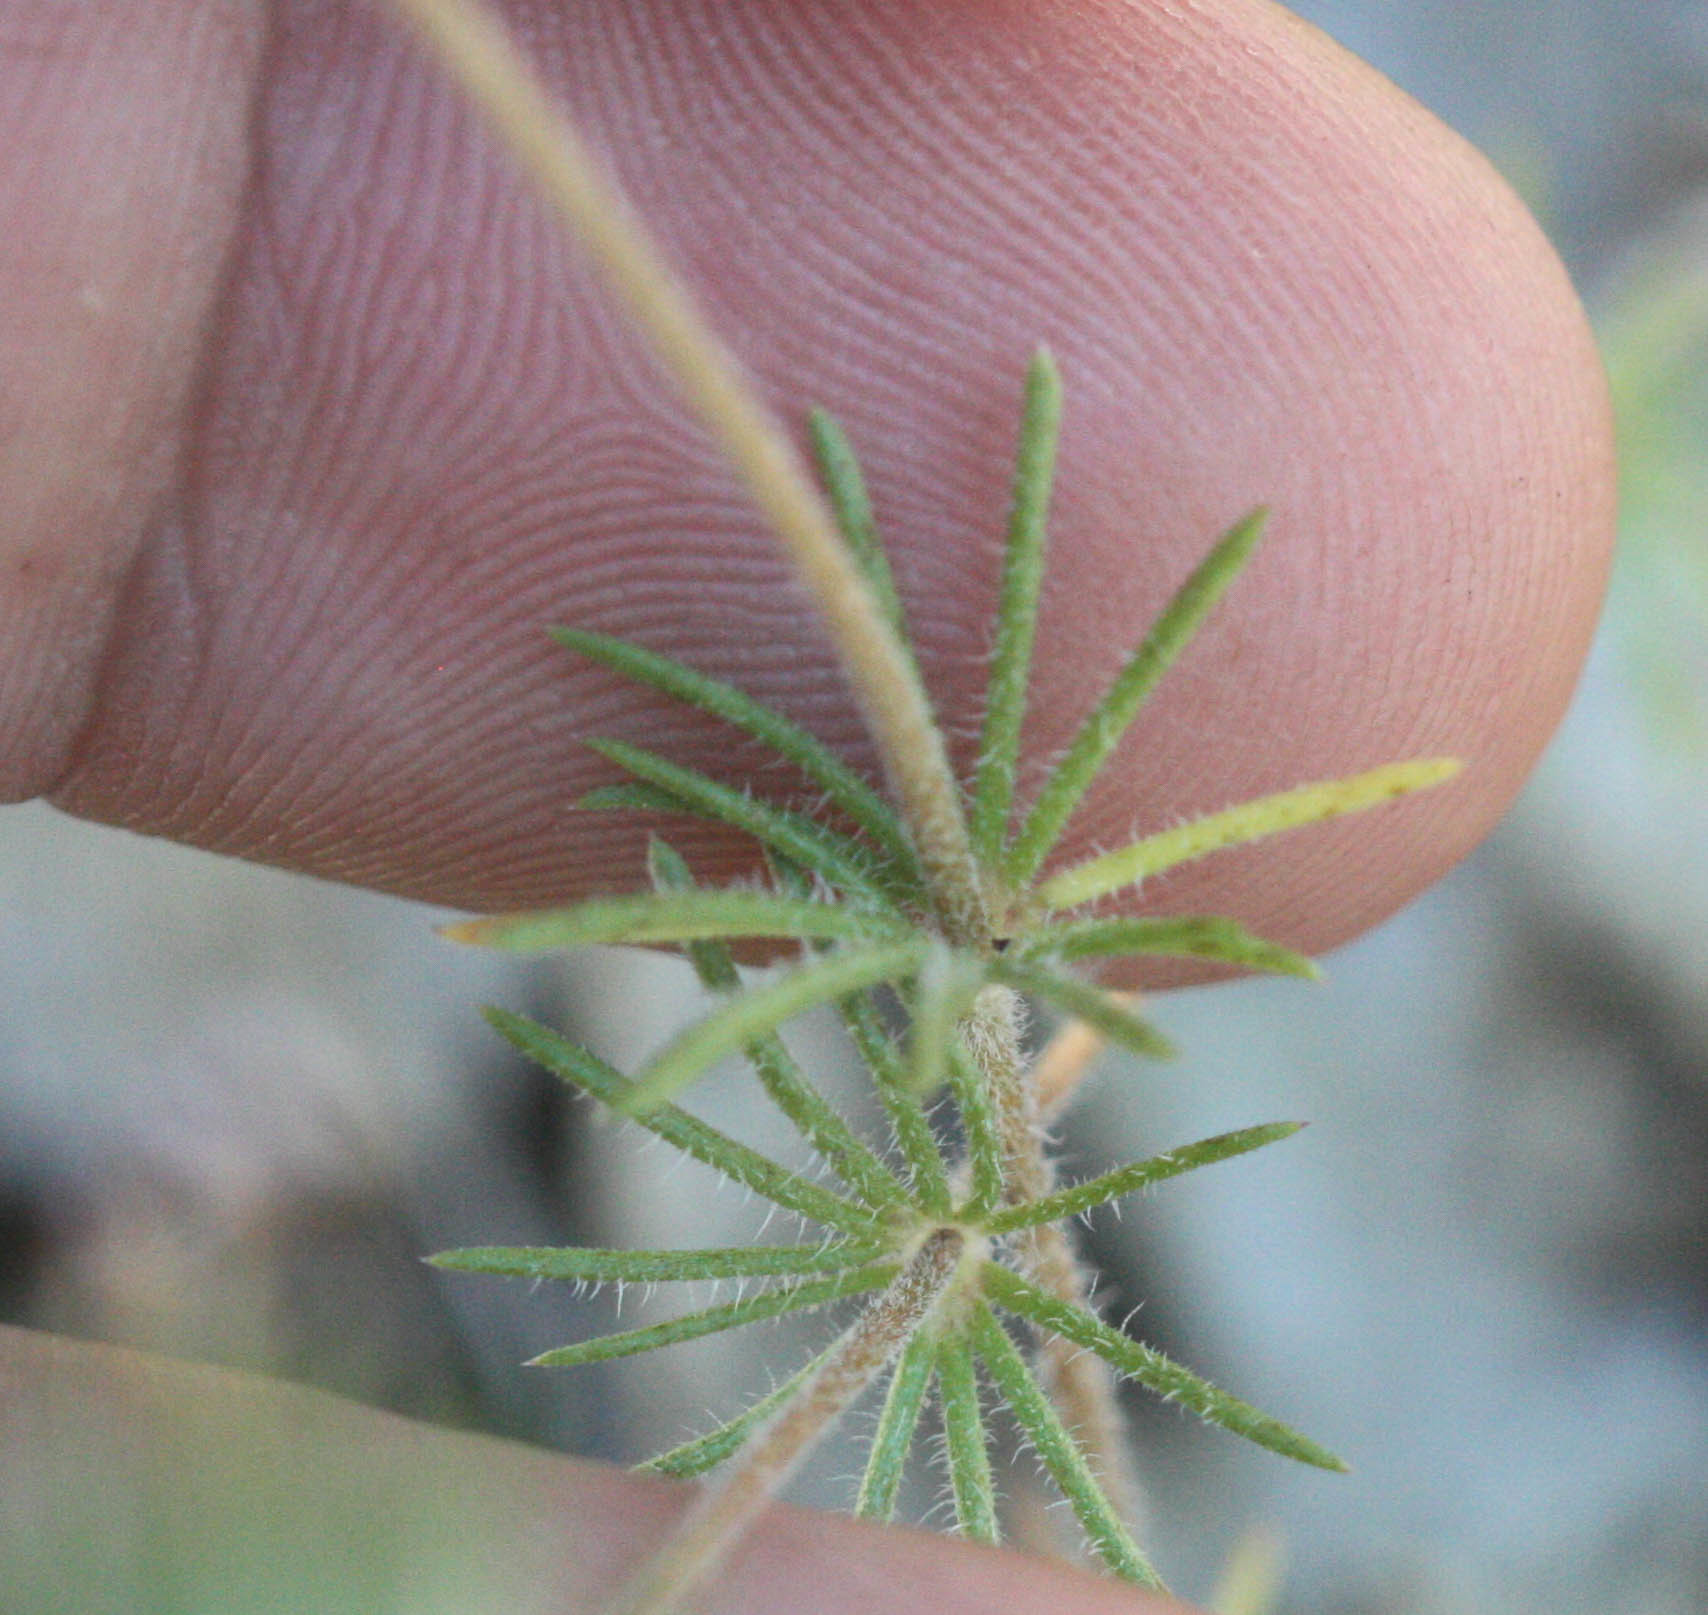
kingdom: Plantae
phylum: Tracheophyta
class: Magnoliopsida
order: Ericales
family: Polemoniaceae
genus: Leptosiphon
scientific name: Leptosiphon ciliatus
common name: Whiskerbrush
